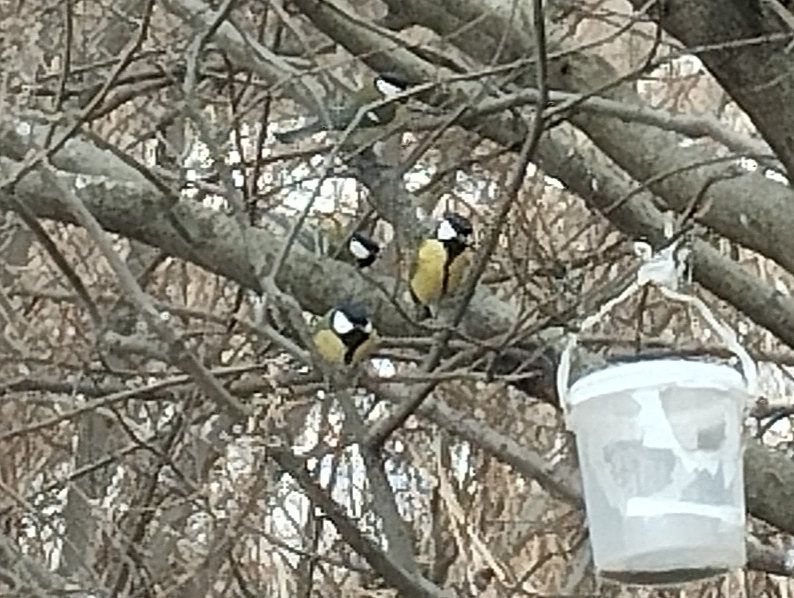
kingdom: Animalia
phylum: Chordata
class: Aves
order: Passeriformes
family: Paridae
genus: Parus
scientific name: Parus major
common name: Great tit
